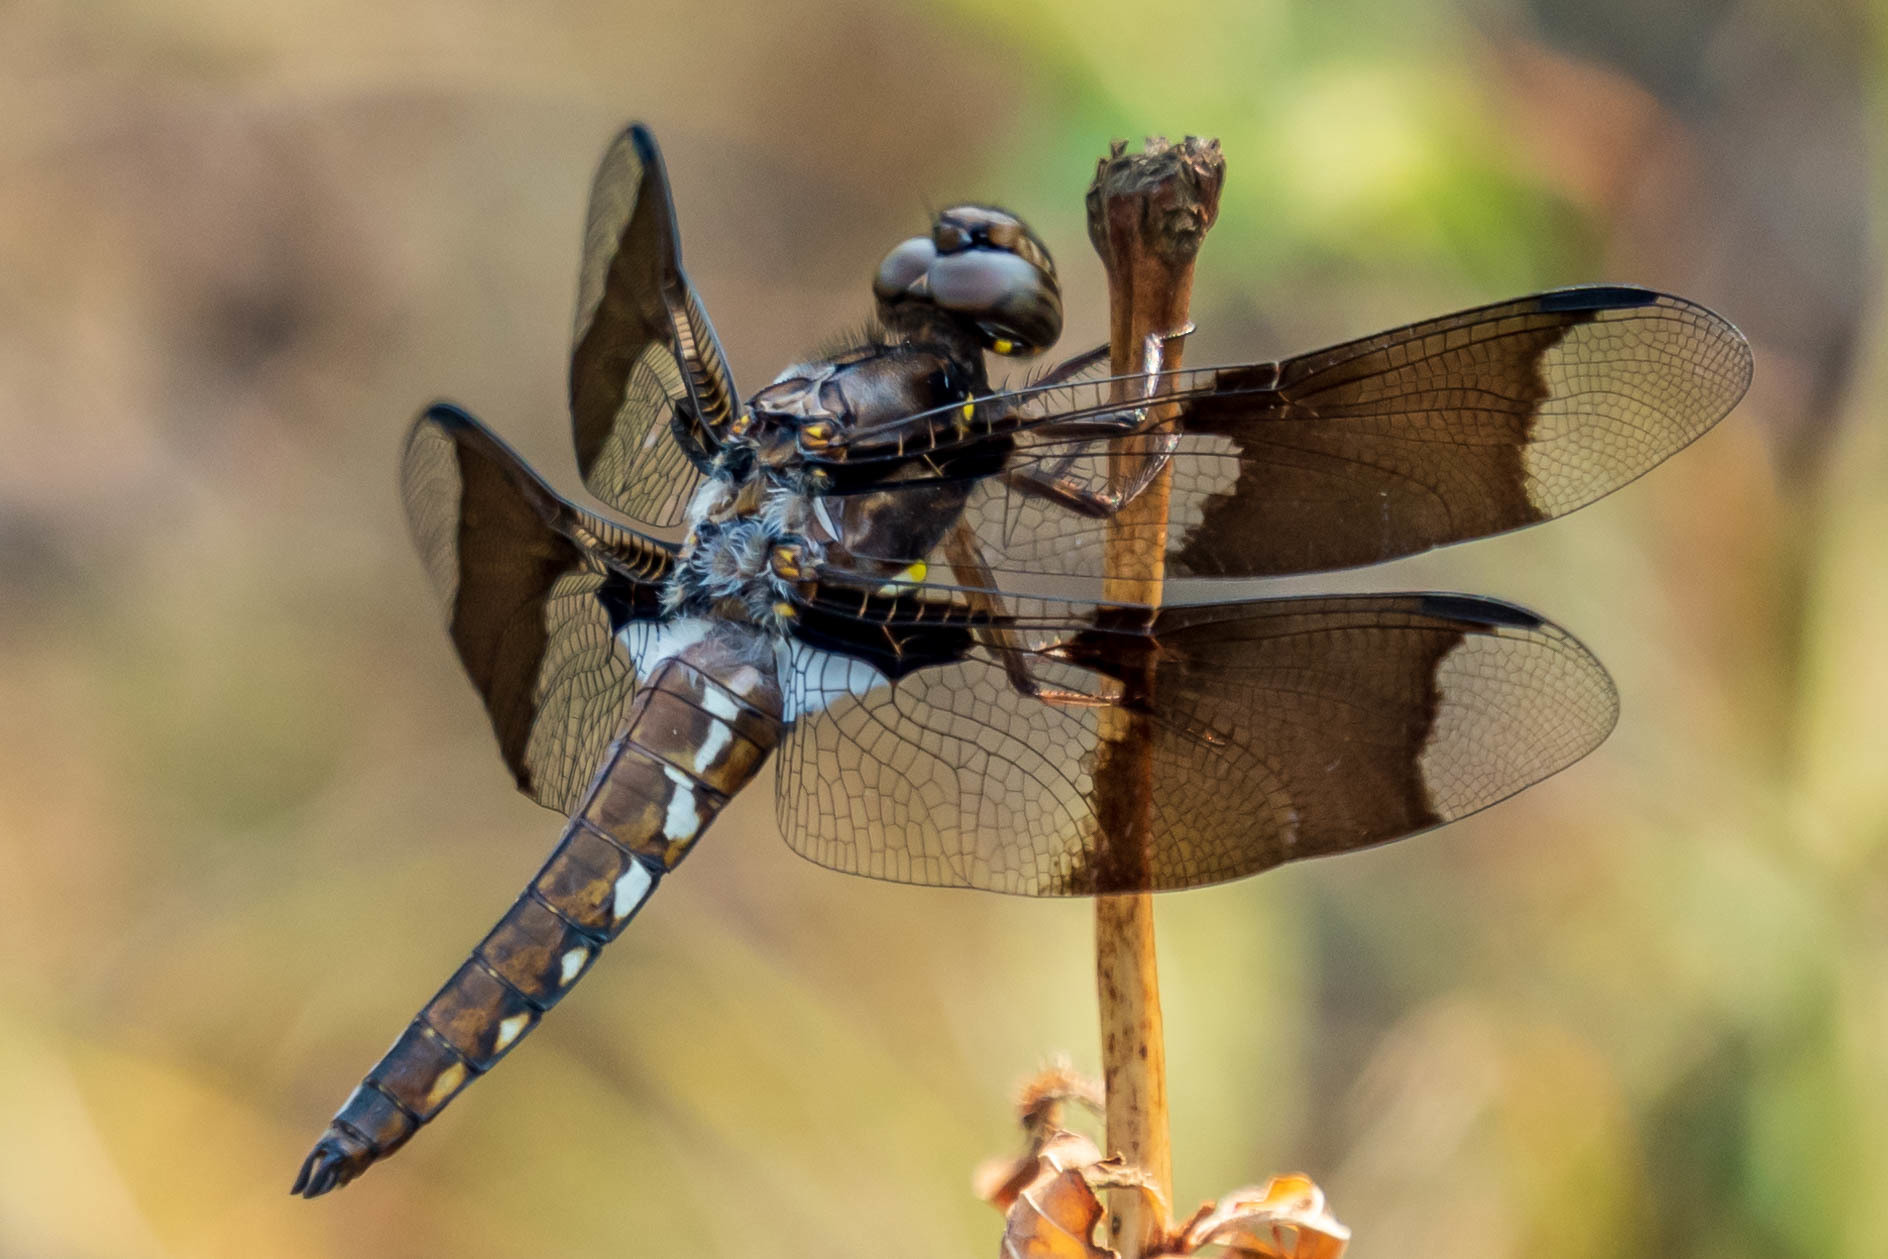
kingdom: Animalia
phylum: Arthropoda
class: Insecta
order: Odonata
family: Libellulidae
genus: Plathemis
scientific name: Plathemis lydia
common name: Common whitetail
